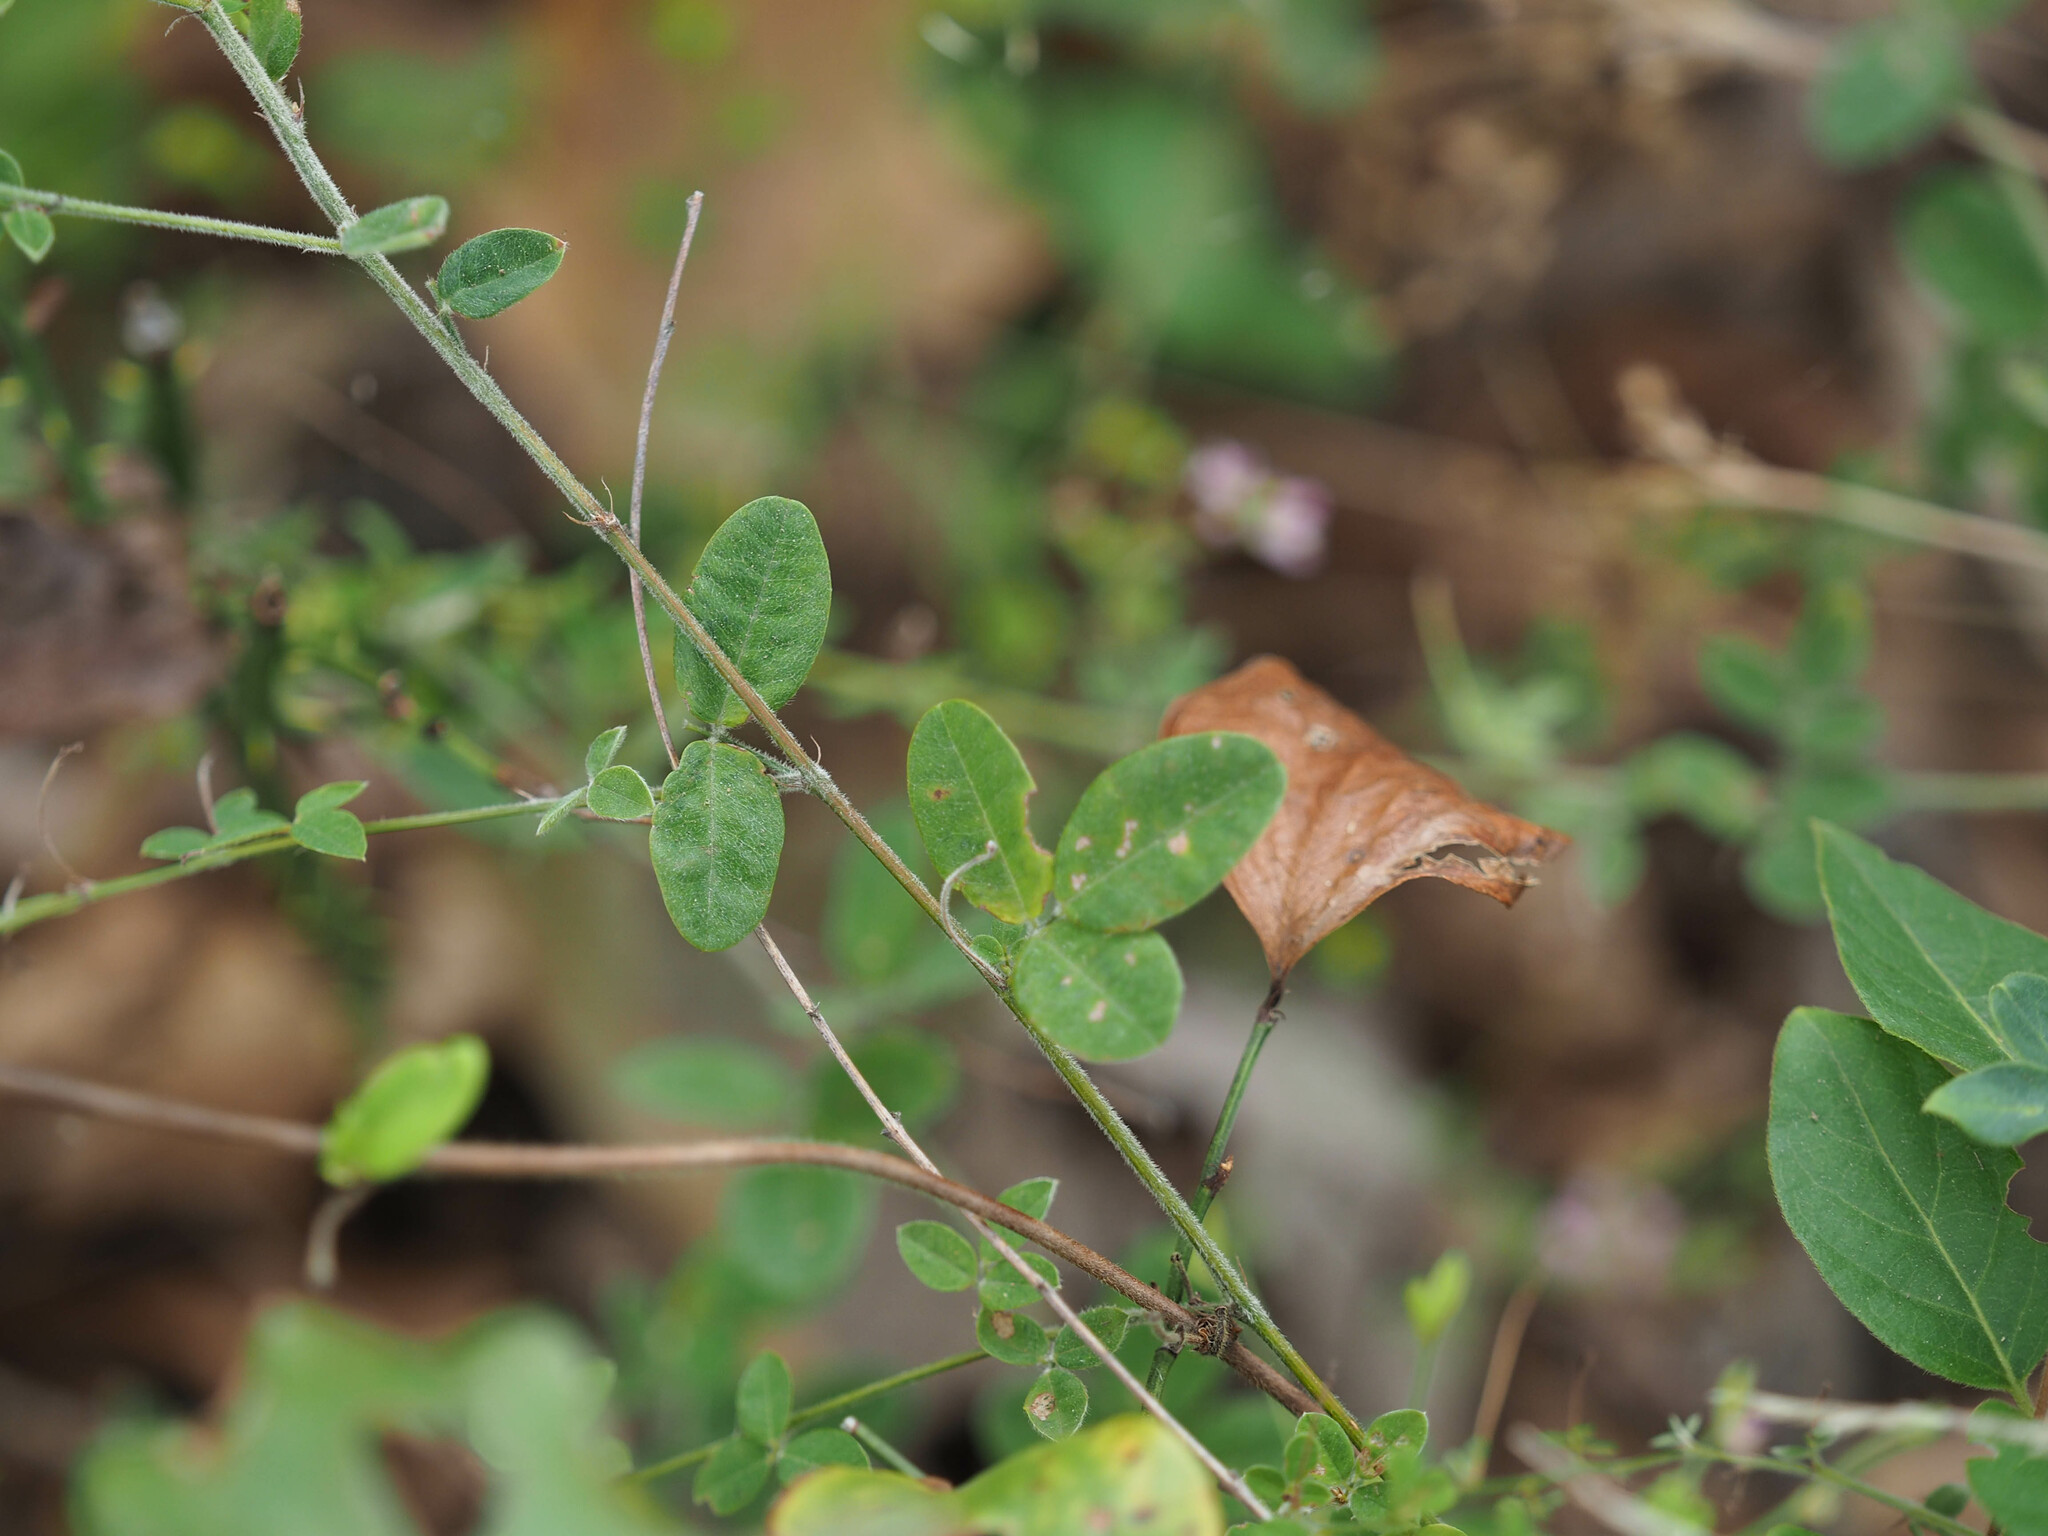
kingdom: Plantae
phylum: Tracheophyta
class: Magnoliopsida
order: Fabales
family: Fabaceae
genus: Lespedeza
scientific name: Lespedeza procumbens
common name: Downy trailing bush-clover
